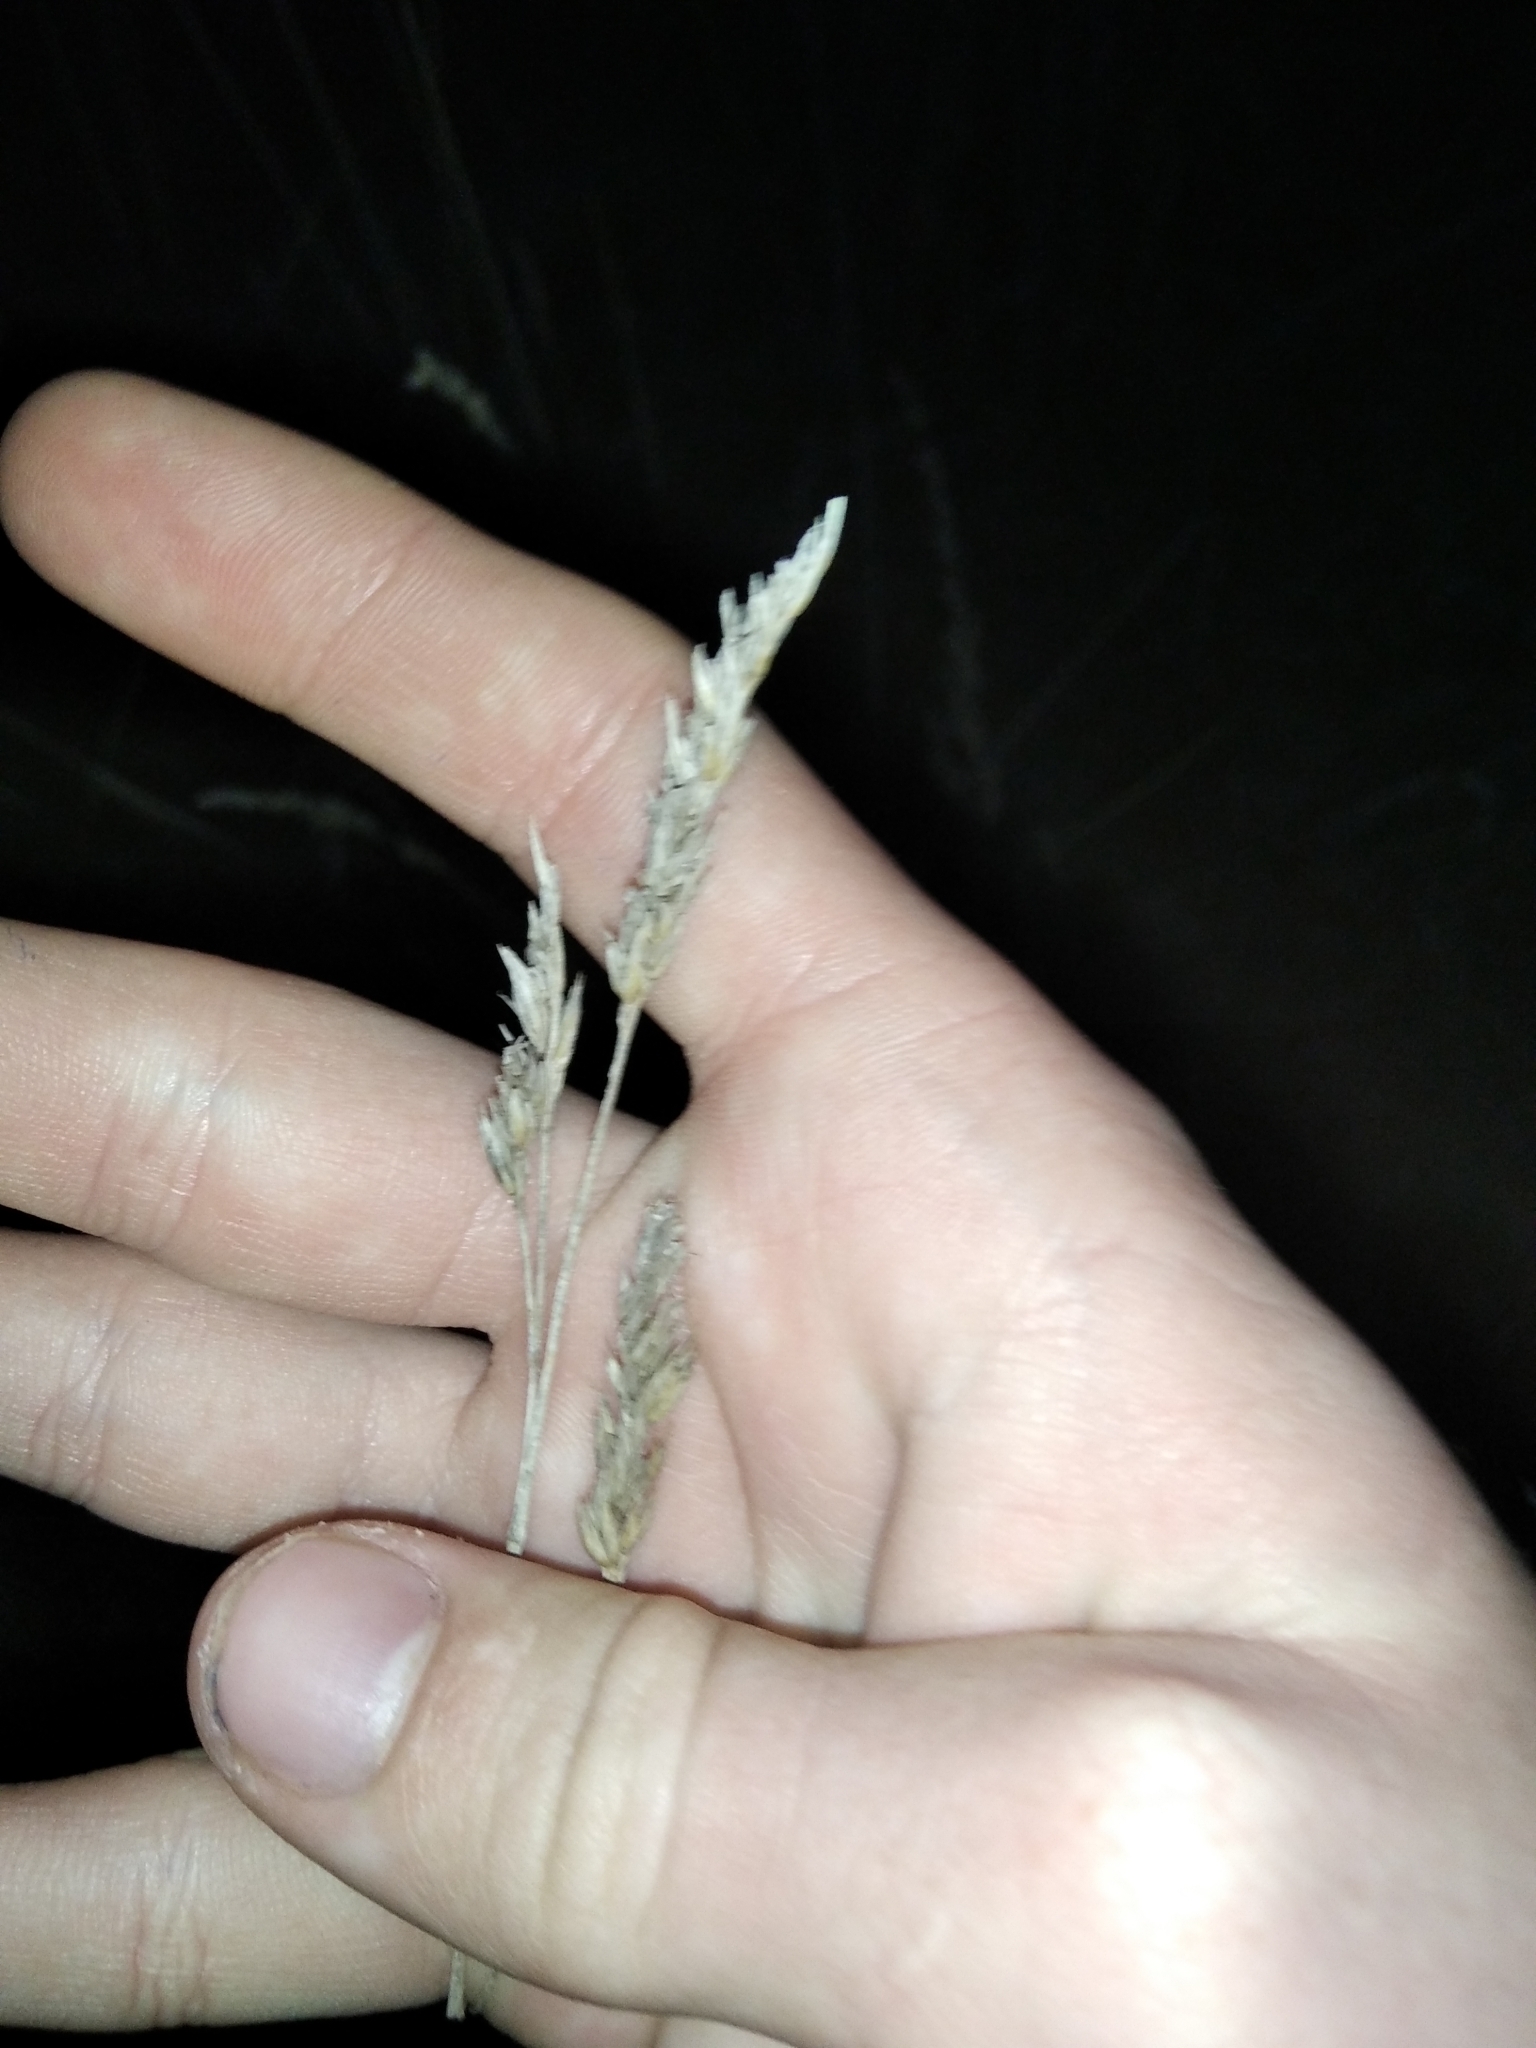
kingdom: Plantae
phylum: Tracheophyta
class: Liliopsida
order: Poales
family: Poaceae
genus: Dactylis
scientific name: Dactylis glomerata
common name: Orchardgrass
